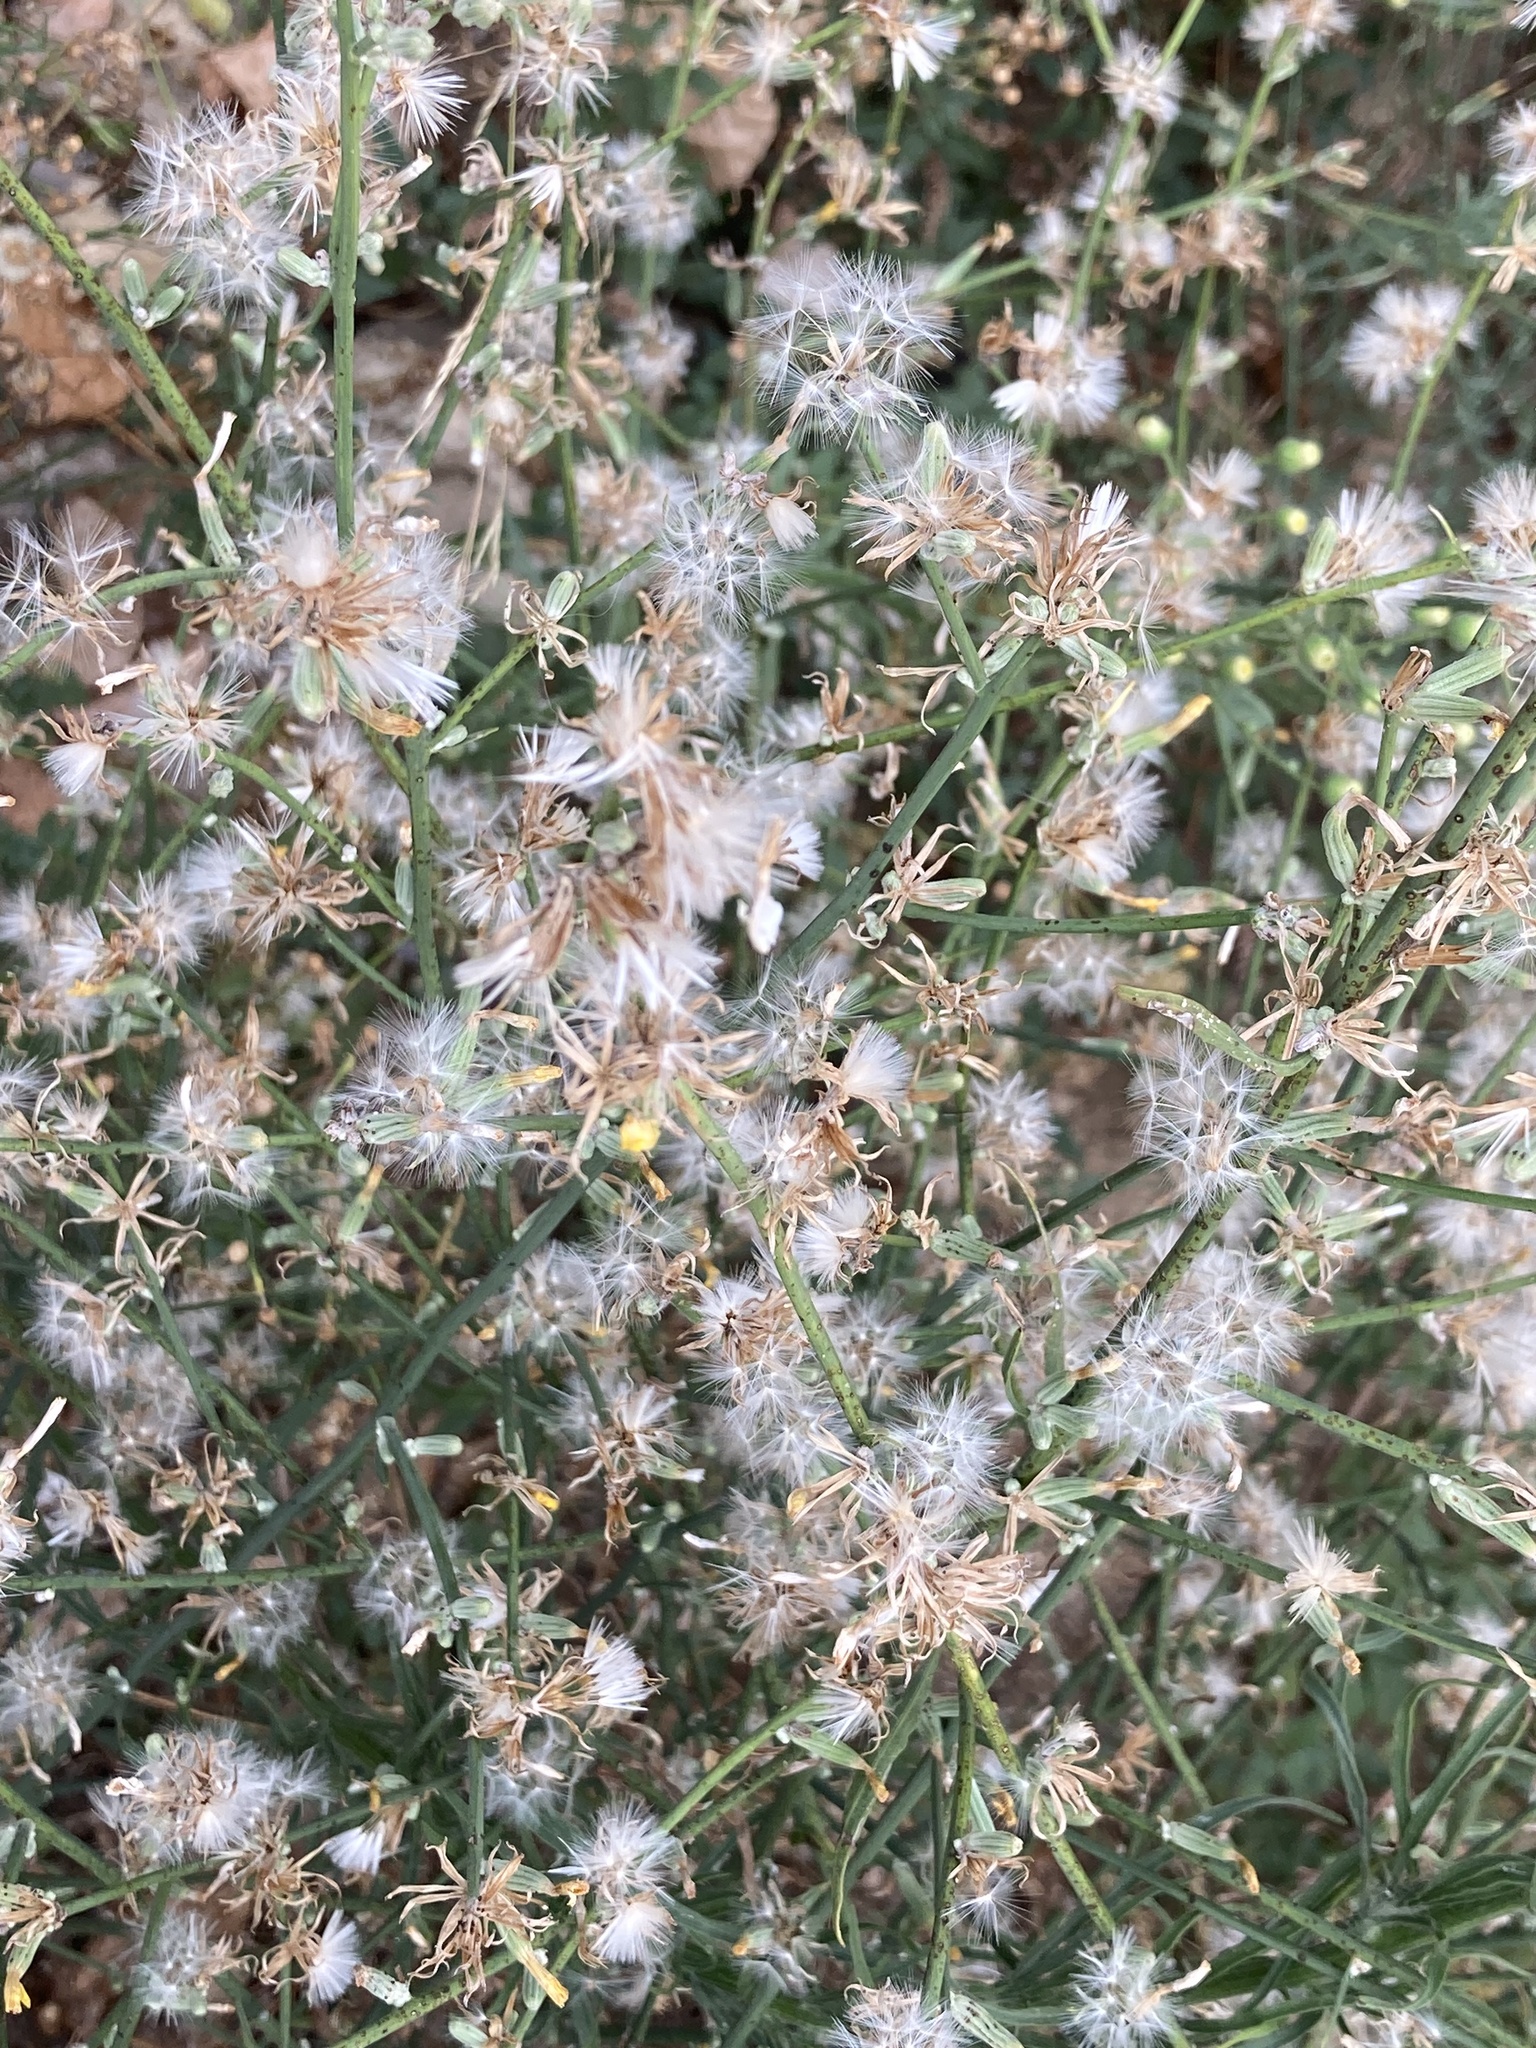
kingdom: Plantae
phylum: Tracheophyta
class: Magnoliopsida
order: Asterales
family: Asteraceae
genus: Chondrilla
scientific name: Chondrilla juncea
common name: Skeleton weed
